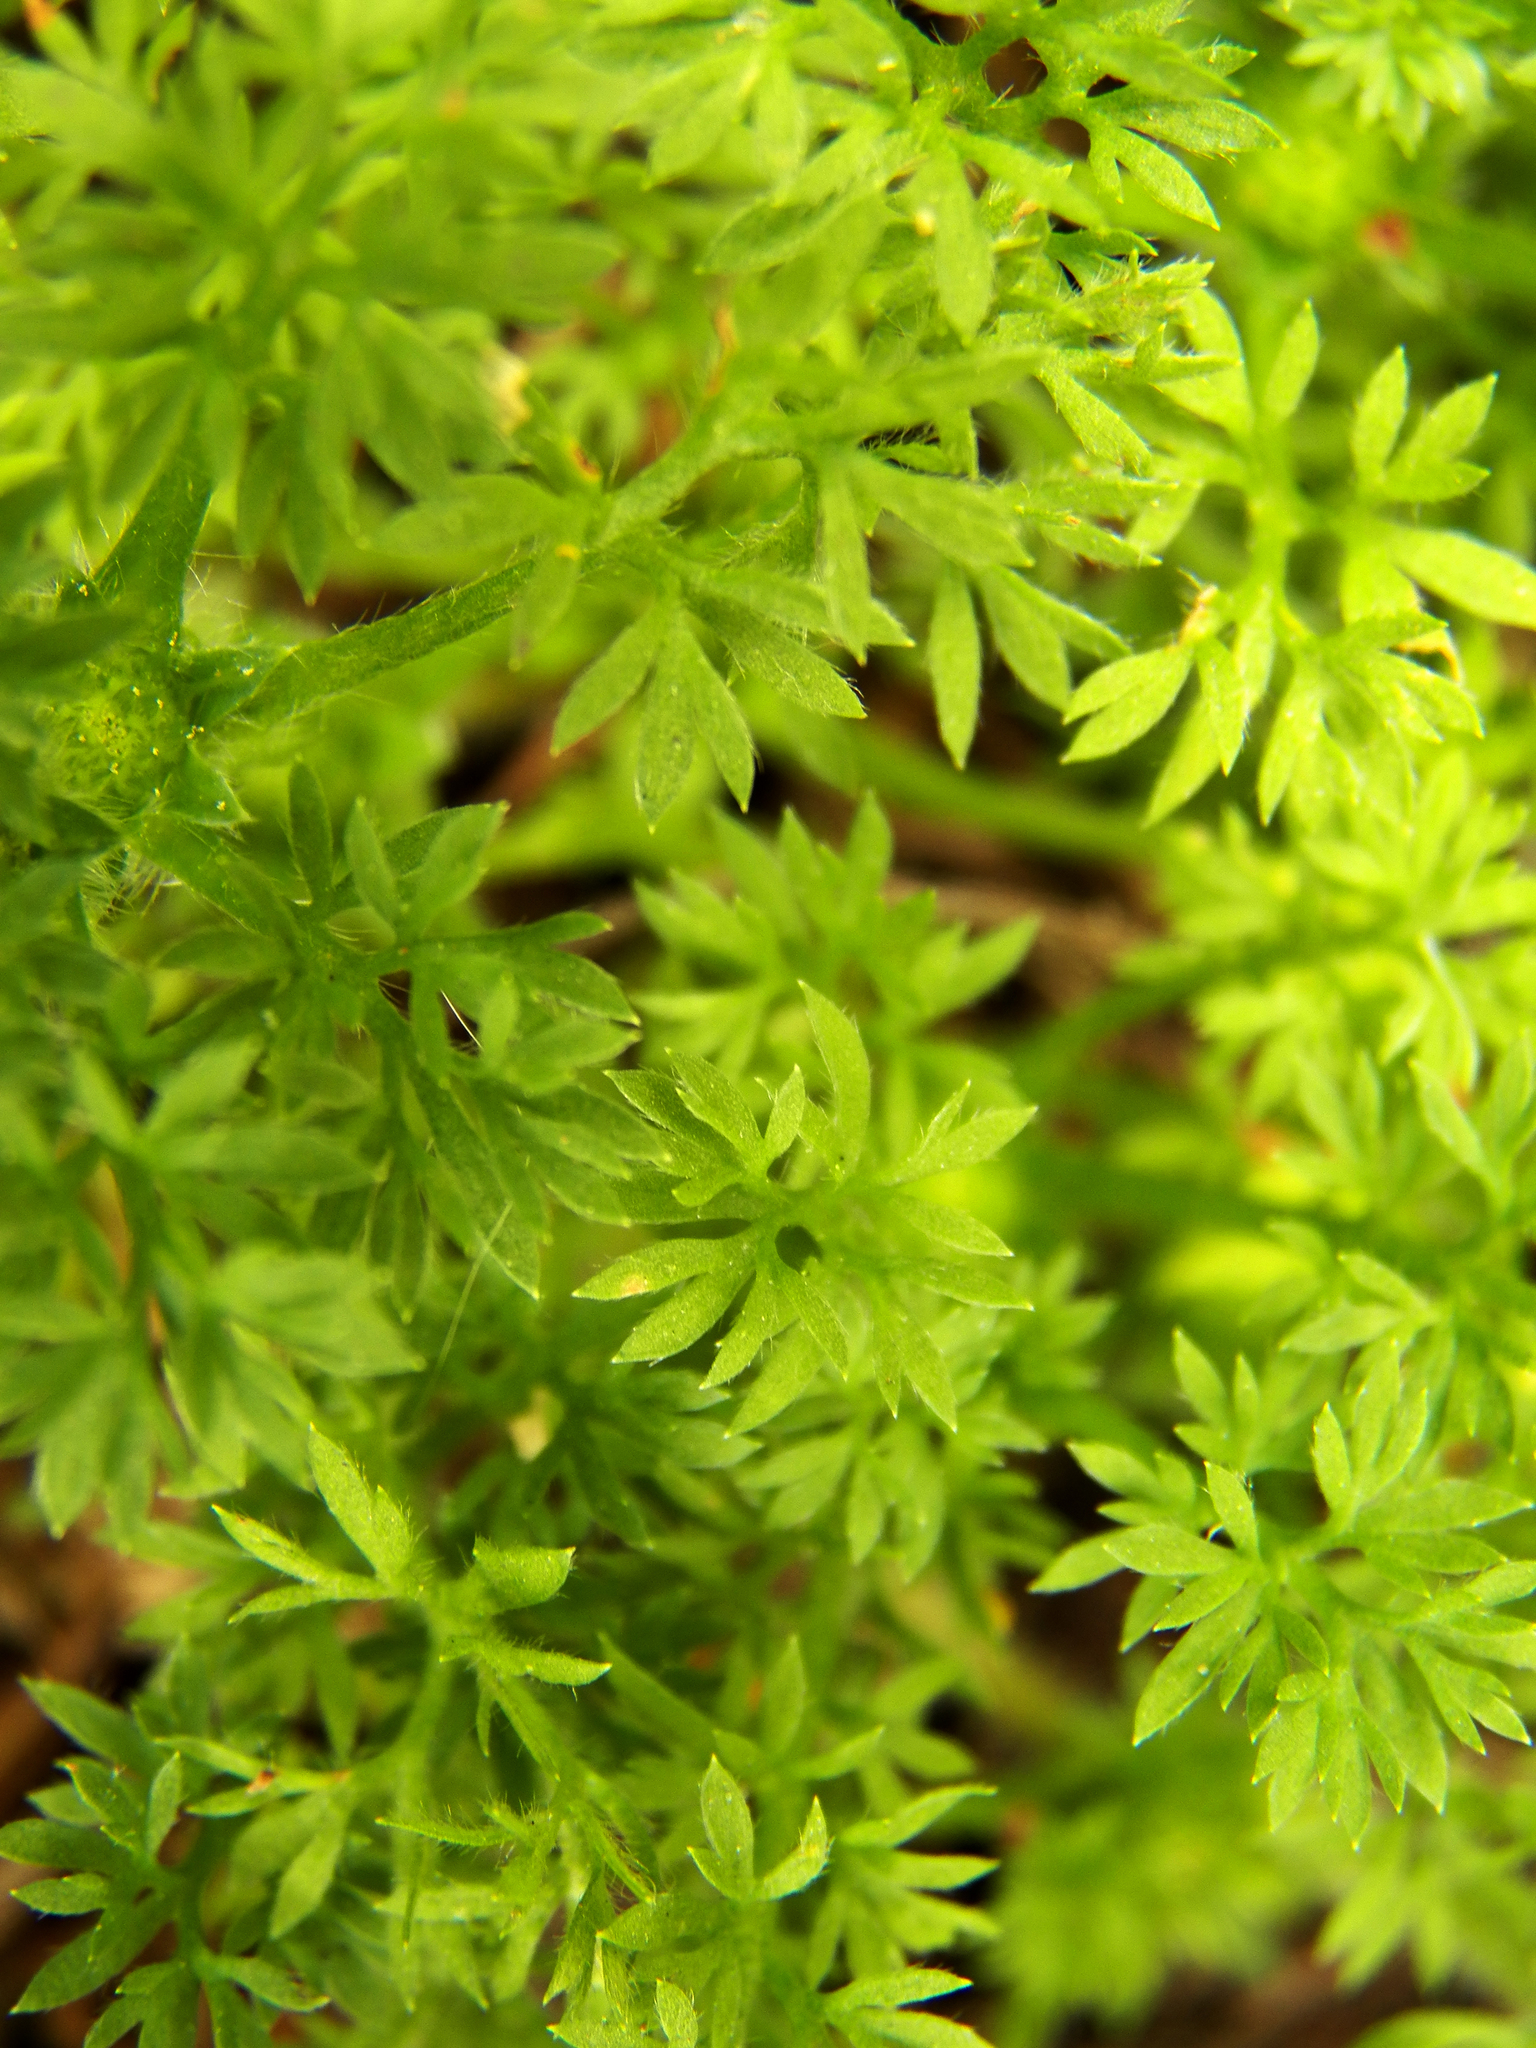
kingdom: Plantae
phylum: Tracheophyta
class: Magnoliopsida
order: Asterales
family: Asteraceae
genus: Soliva
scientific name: Soliva sessilis
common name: Field burrweed
